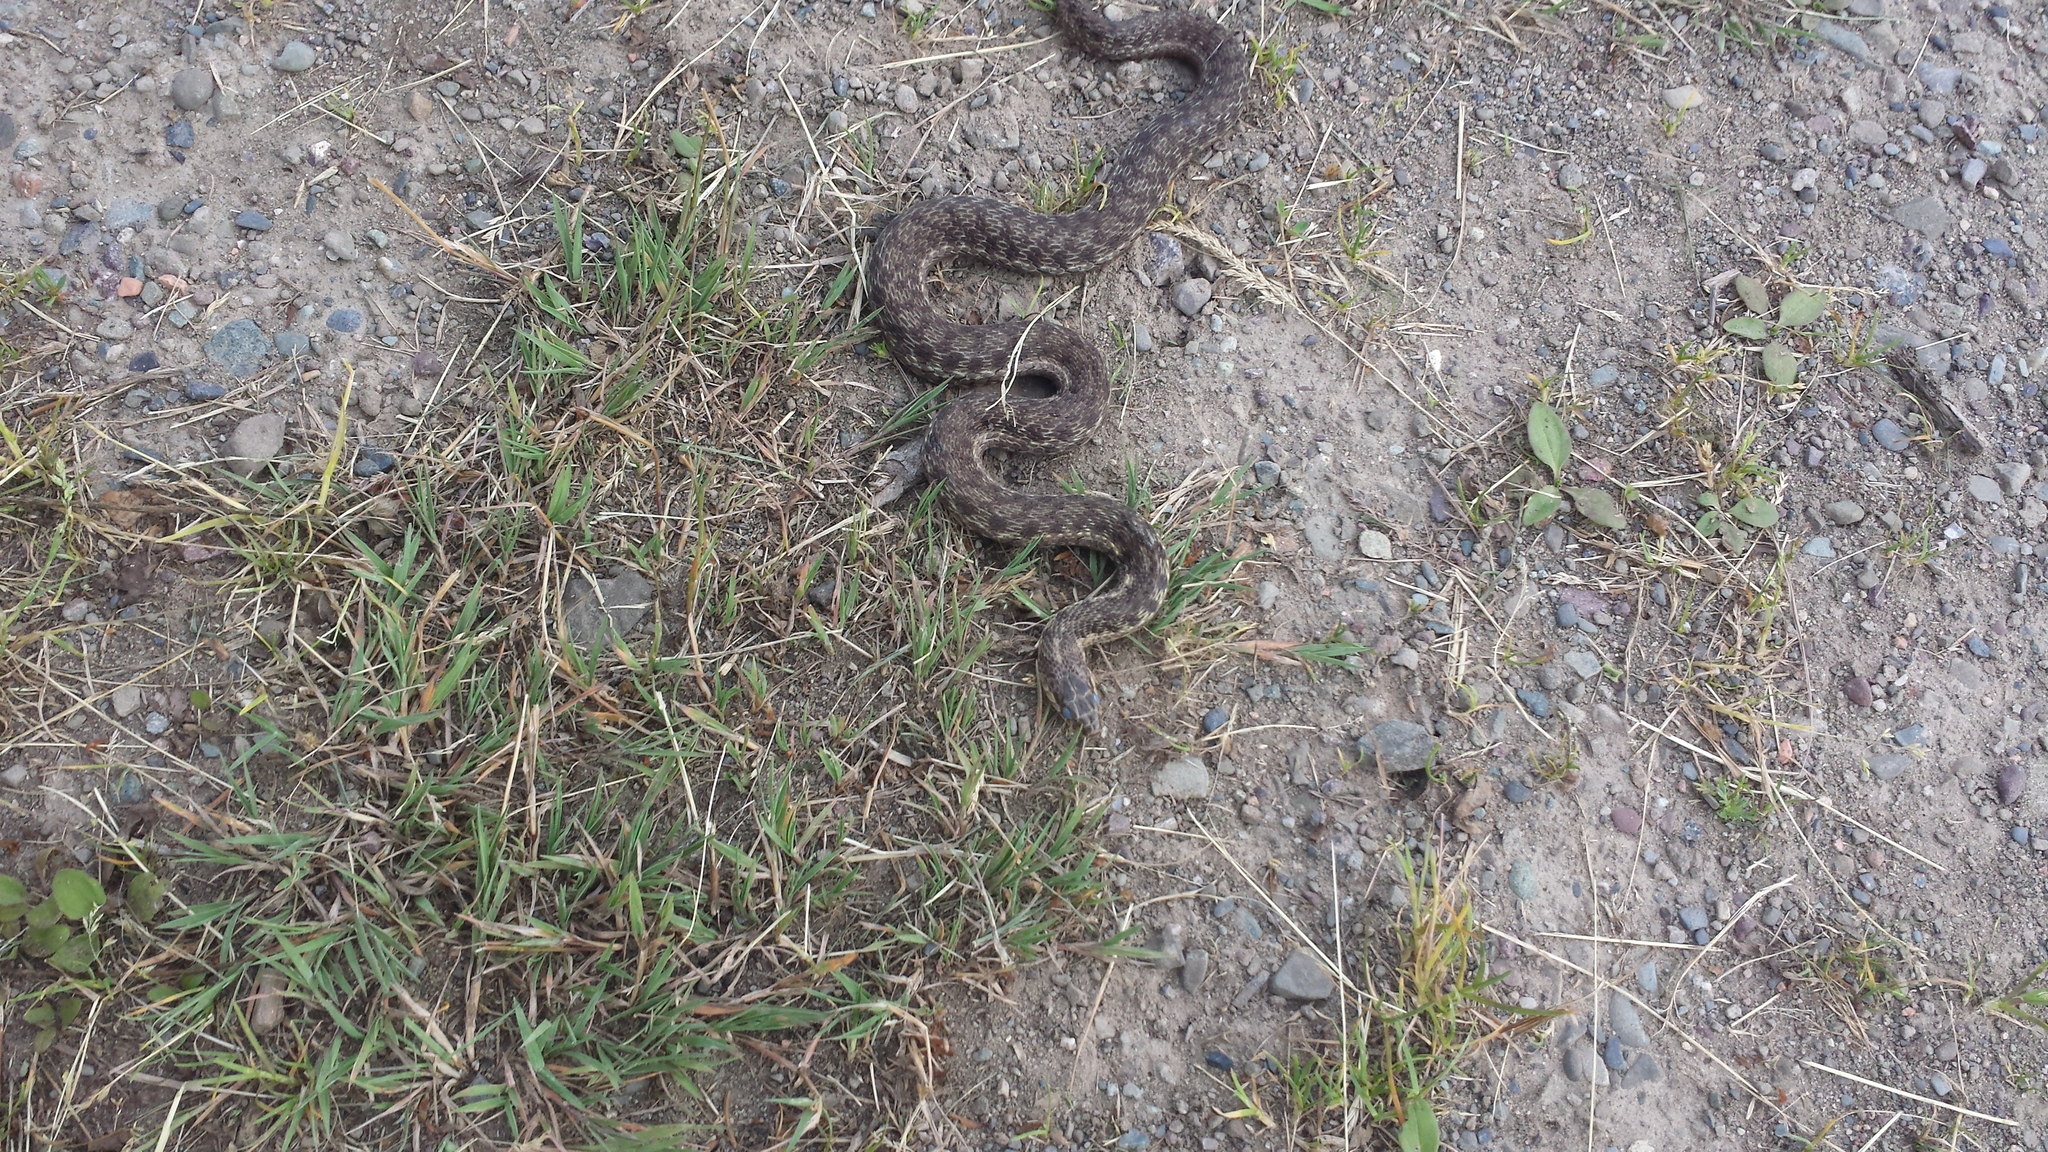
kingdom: Animalia
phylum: Chordata
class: Squamata
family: Colubridae
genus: Thamnophis
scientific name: Thamnophis sirtalis
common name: Common garter snake
